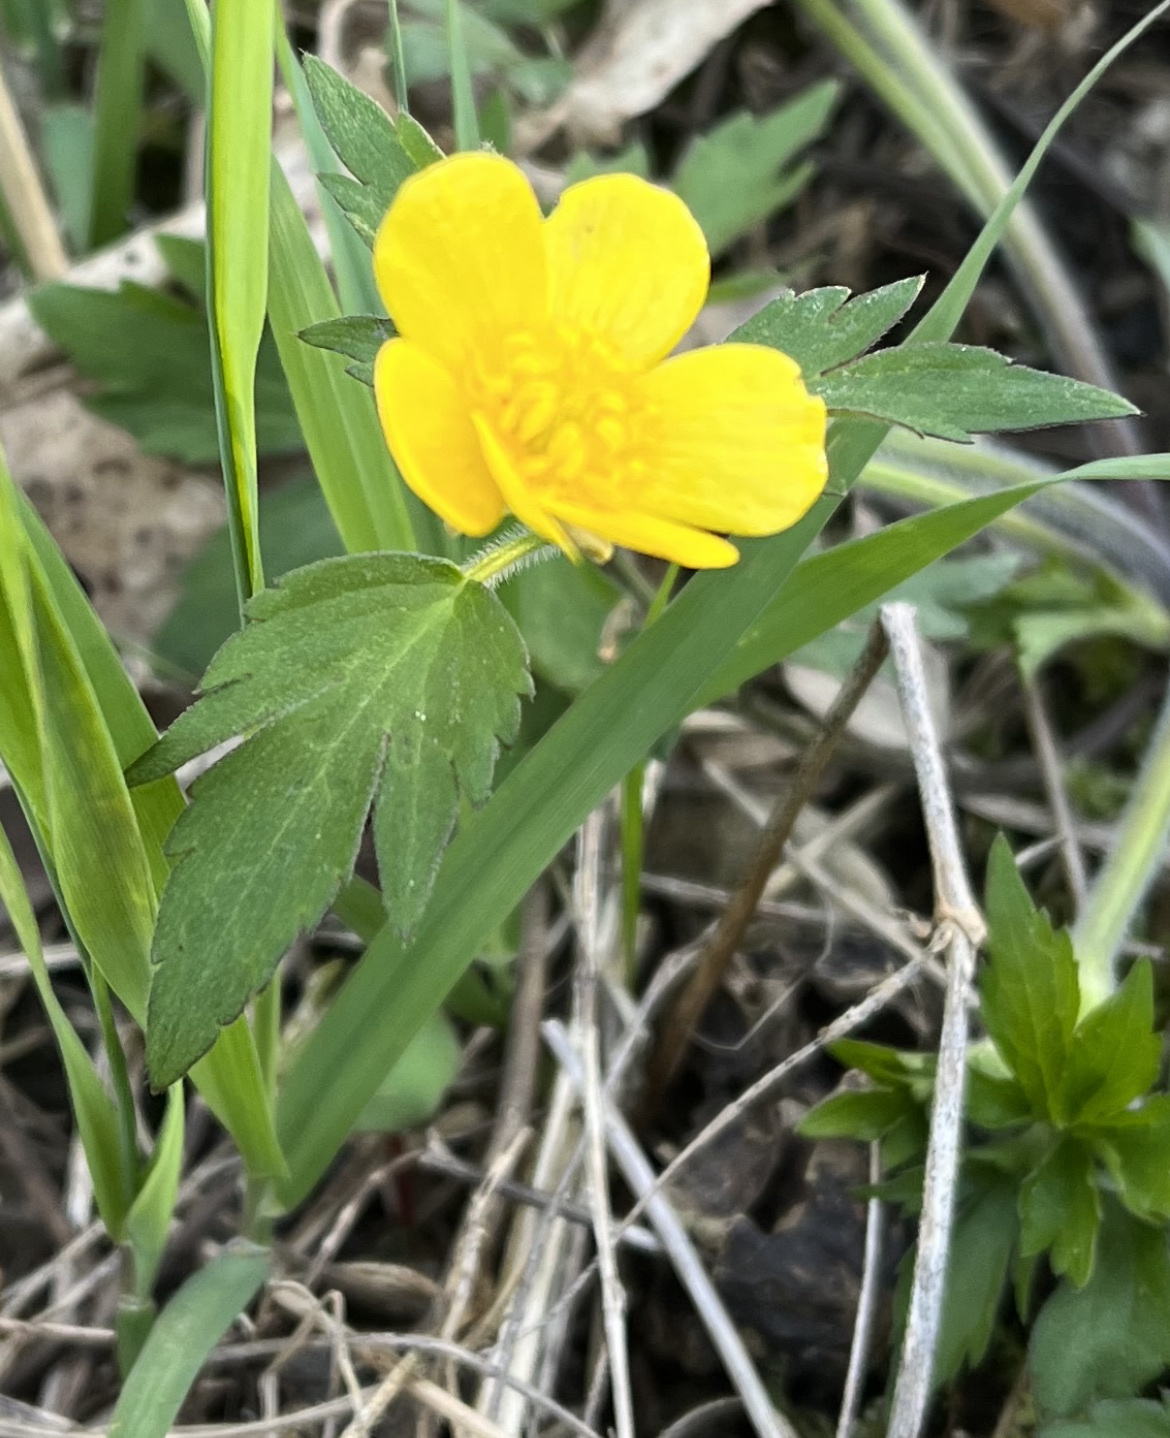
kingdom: Plantae
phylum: Tracheophyta
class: Magnoliopsida
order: Ranunculales
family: Ranunculaceae
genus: Ranunculus
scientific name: Ranunculus hispidus
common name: Bristly buttercup
